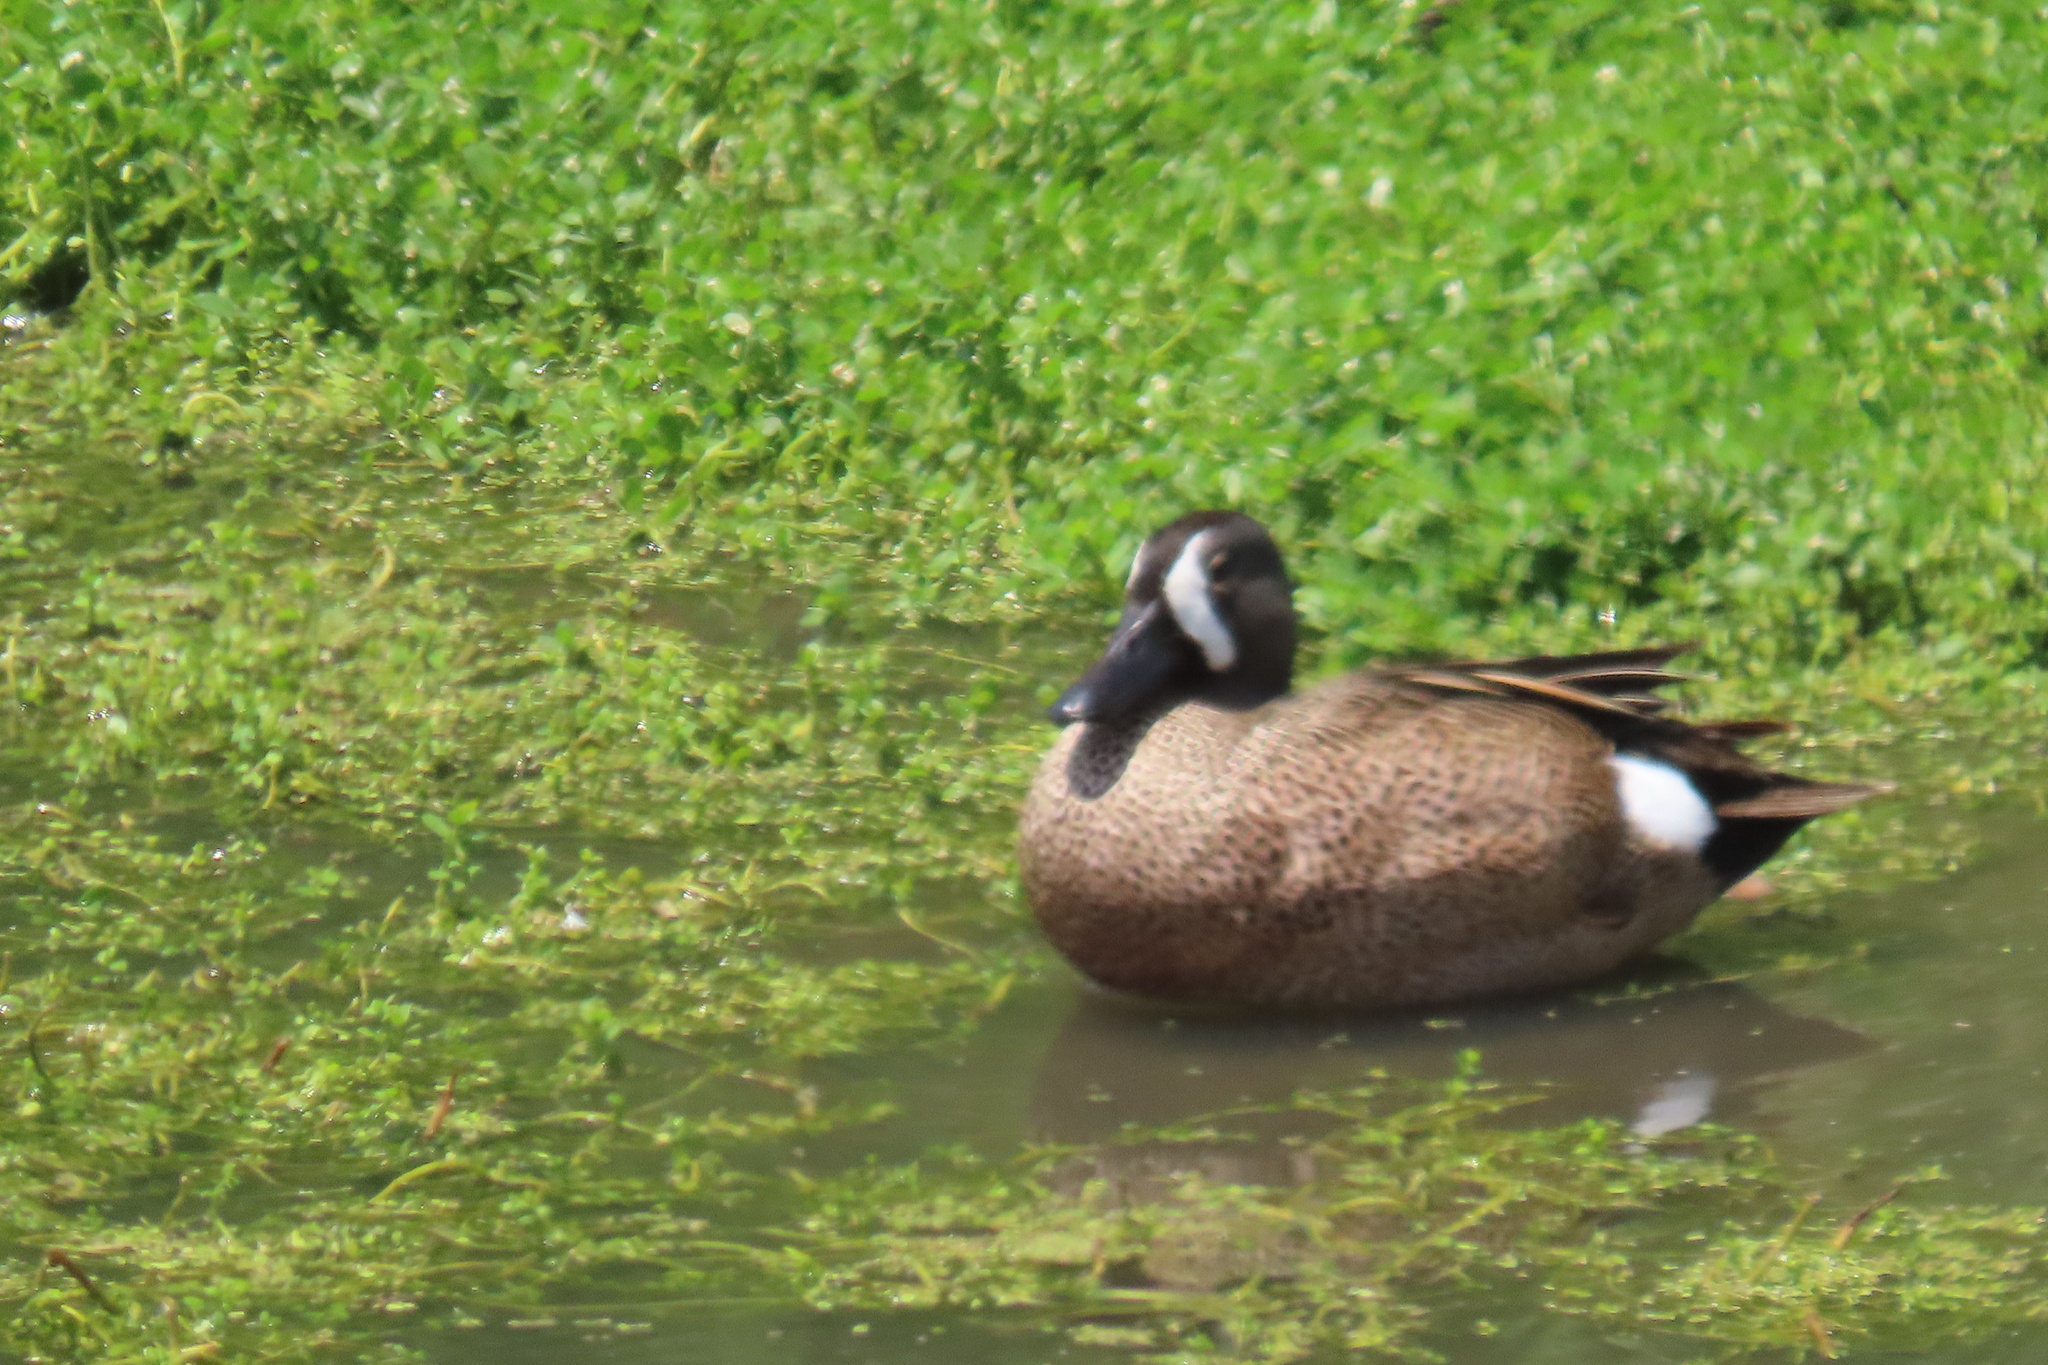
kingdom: Animalia
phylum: Chordata
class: Aves
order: Anseriformes
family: Anatidae
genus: Spatula
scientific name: Spatula discors
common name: Blue-winged teal
